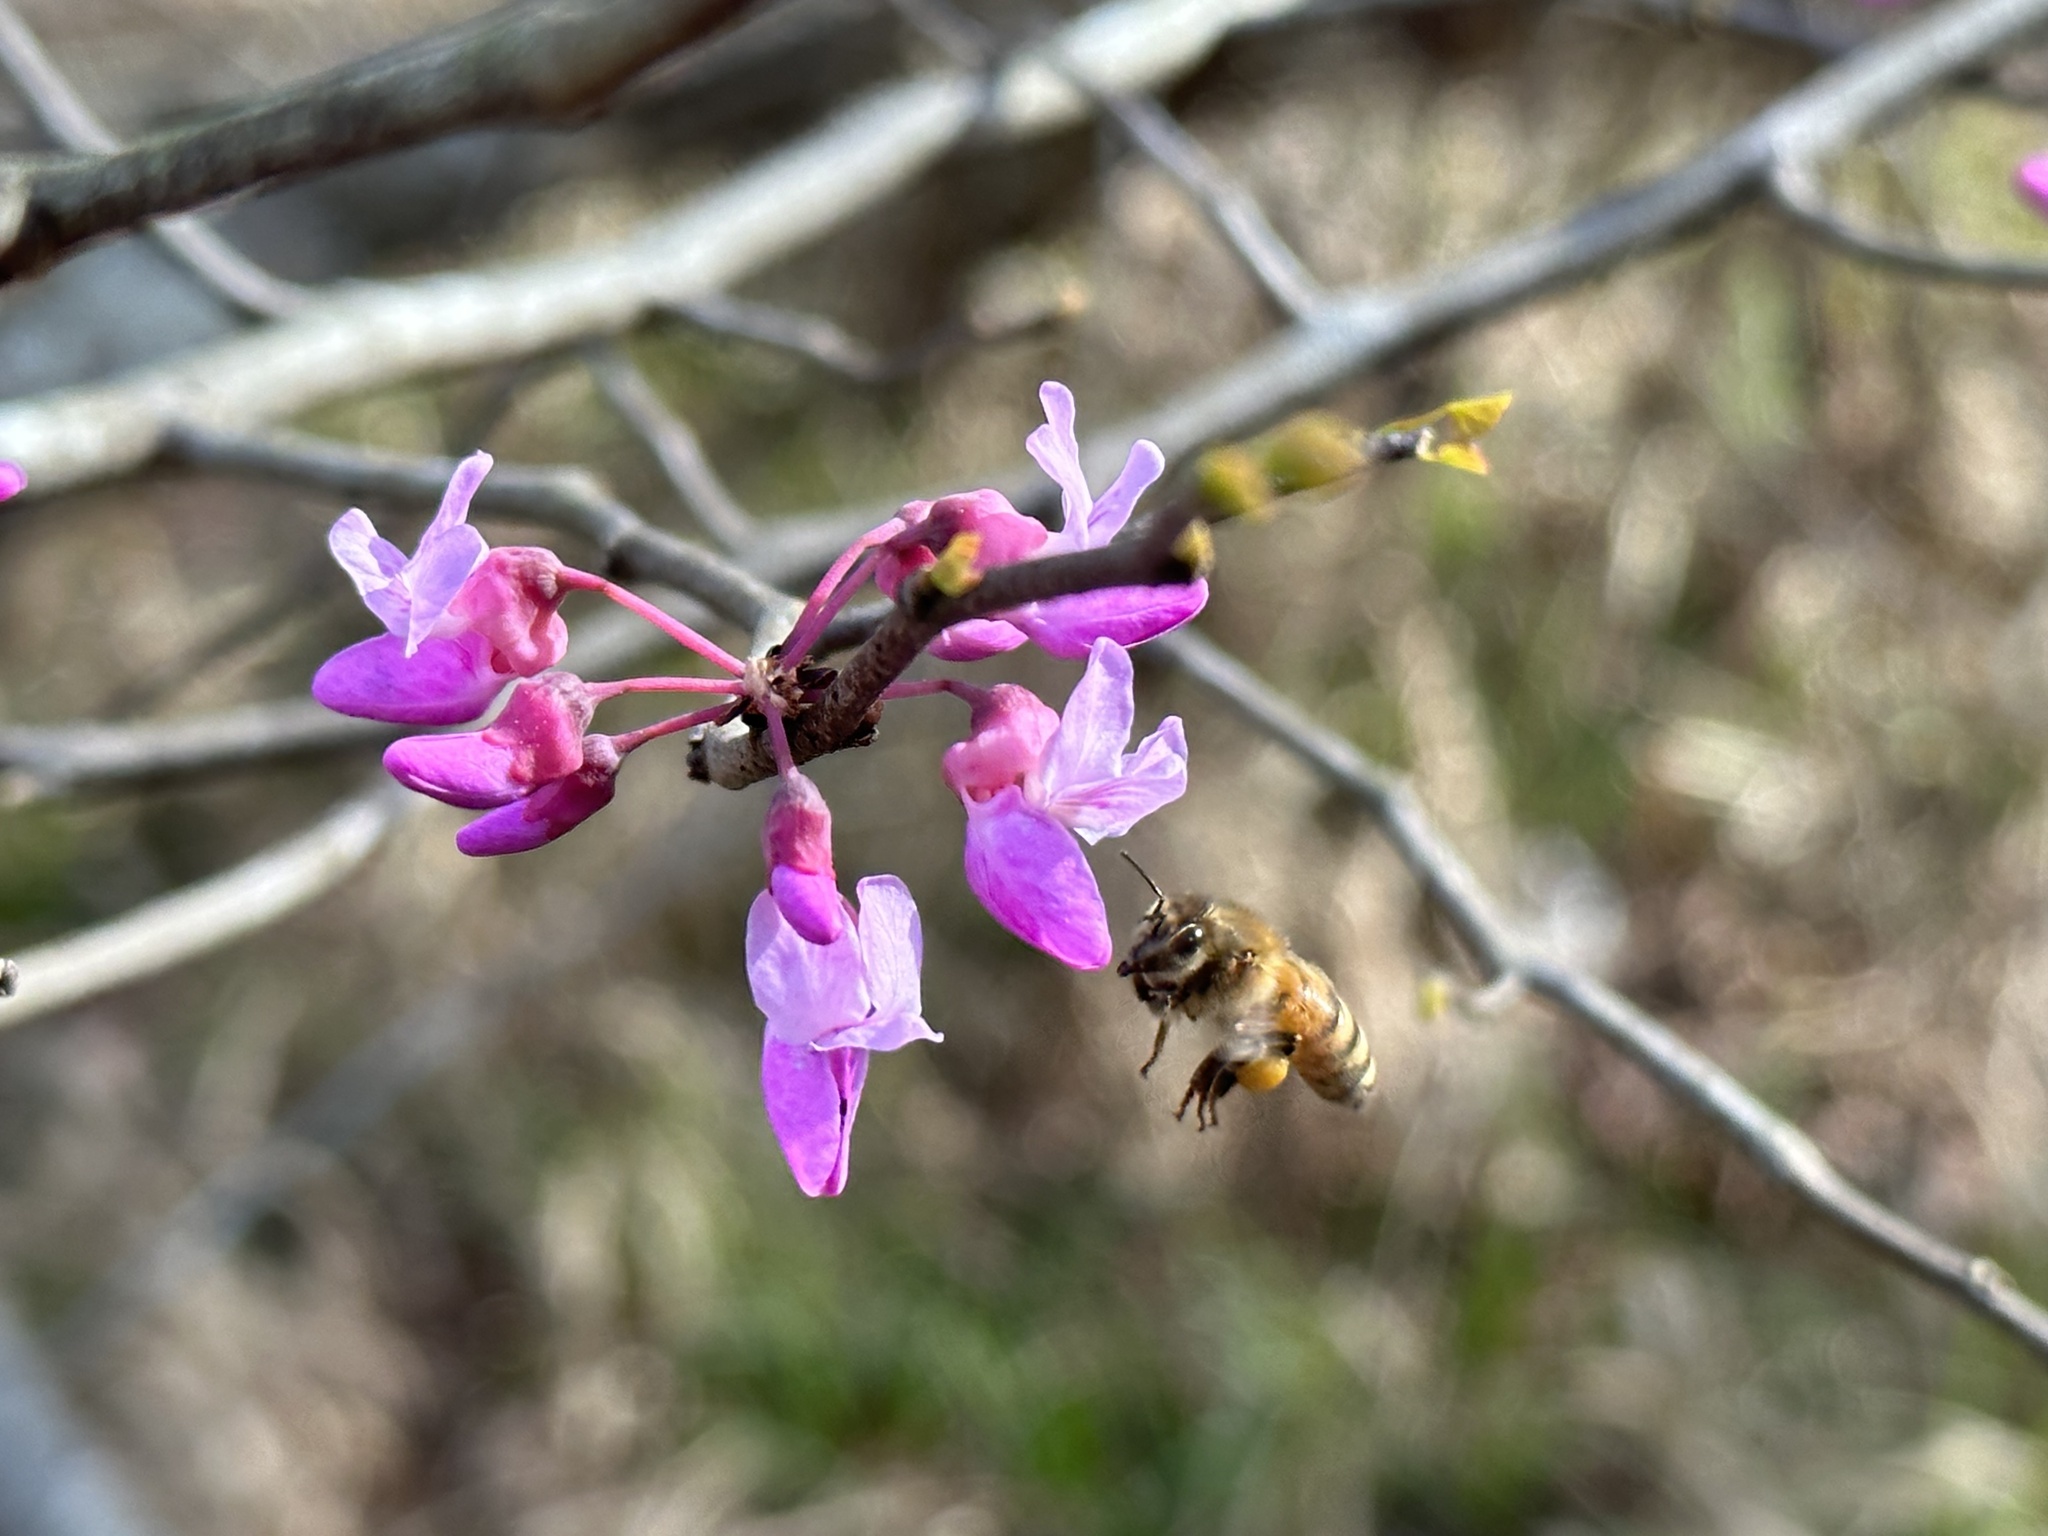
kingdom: Animalia
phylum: Arthropoda
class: Insecta
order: Hymenoptera
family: Apidae
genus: Apis
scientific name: Apis mellifera
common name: Honey bee
